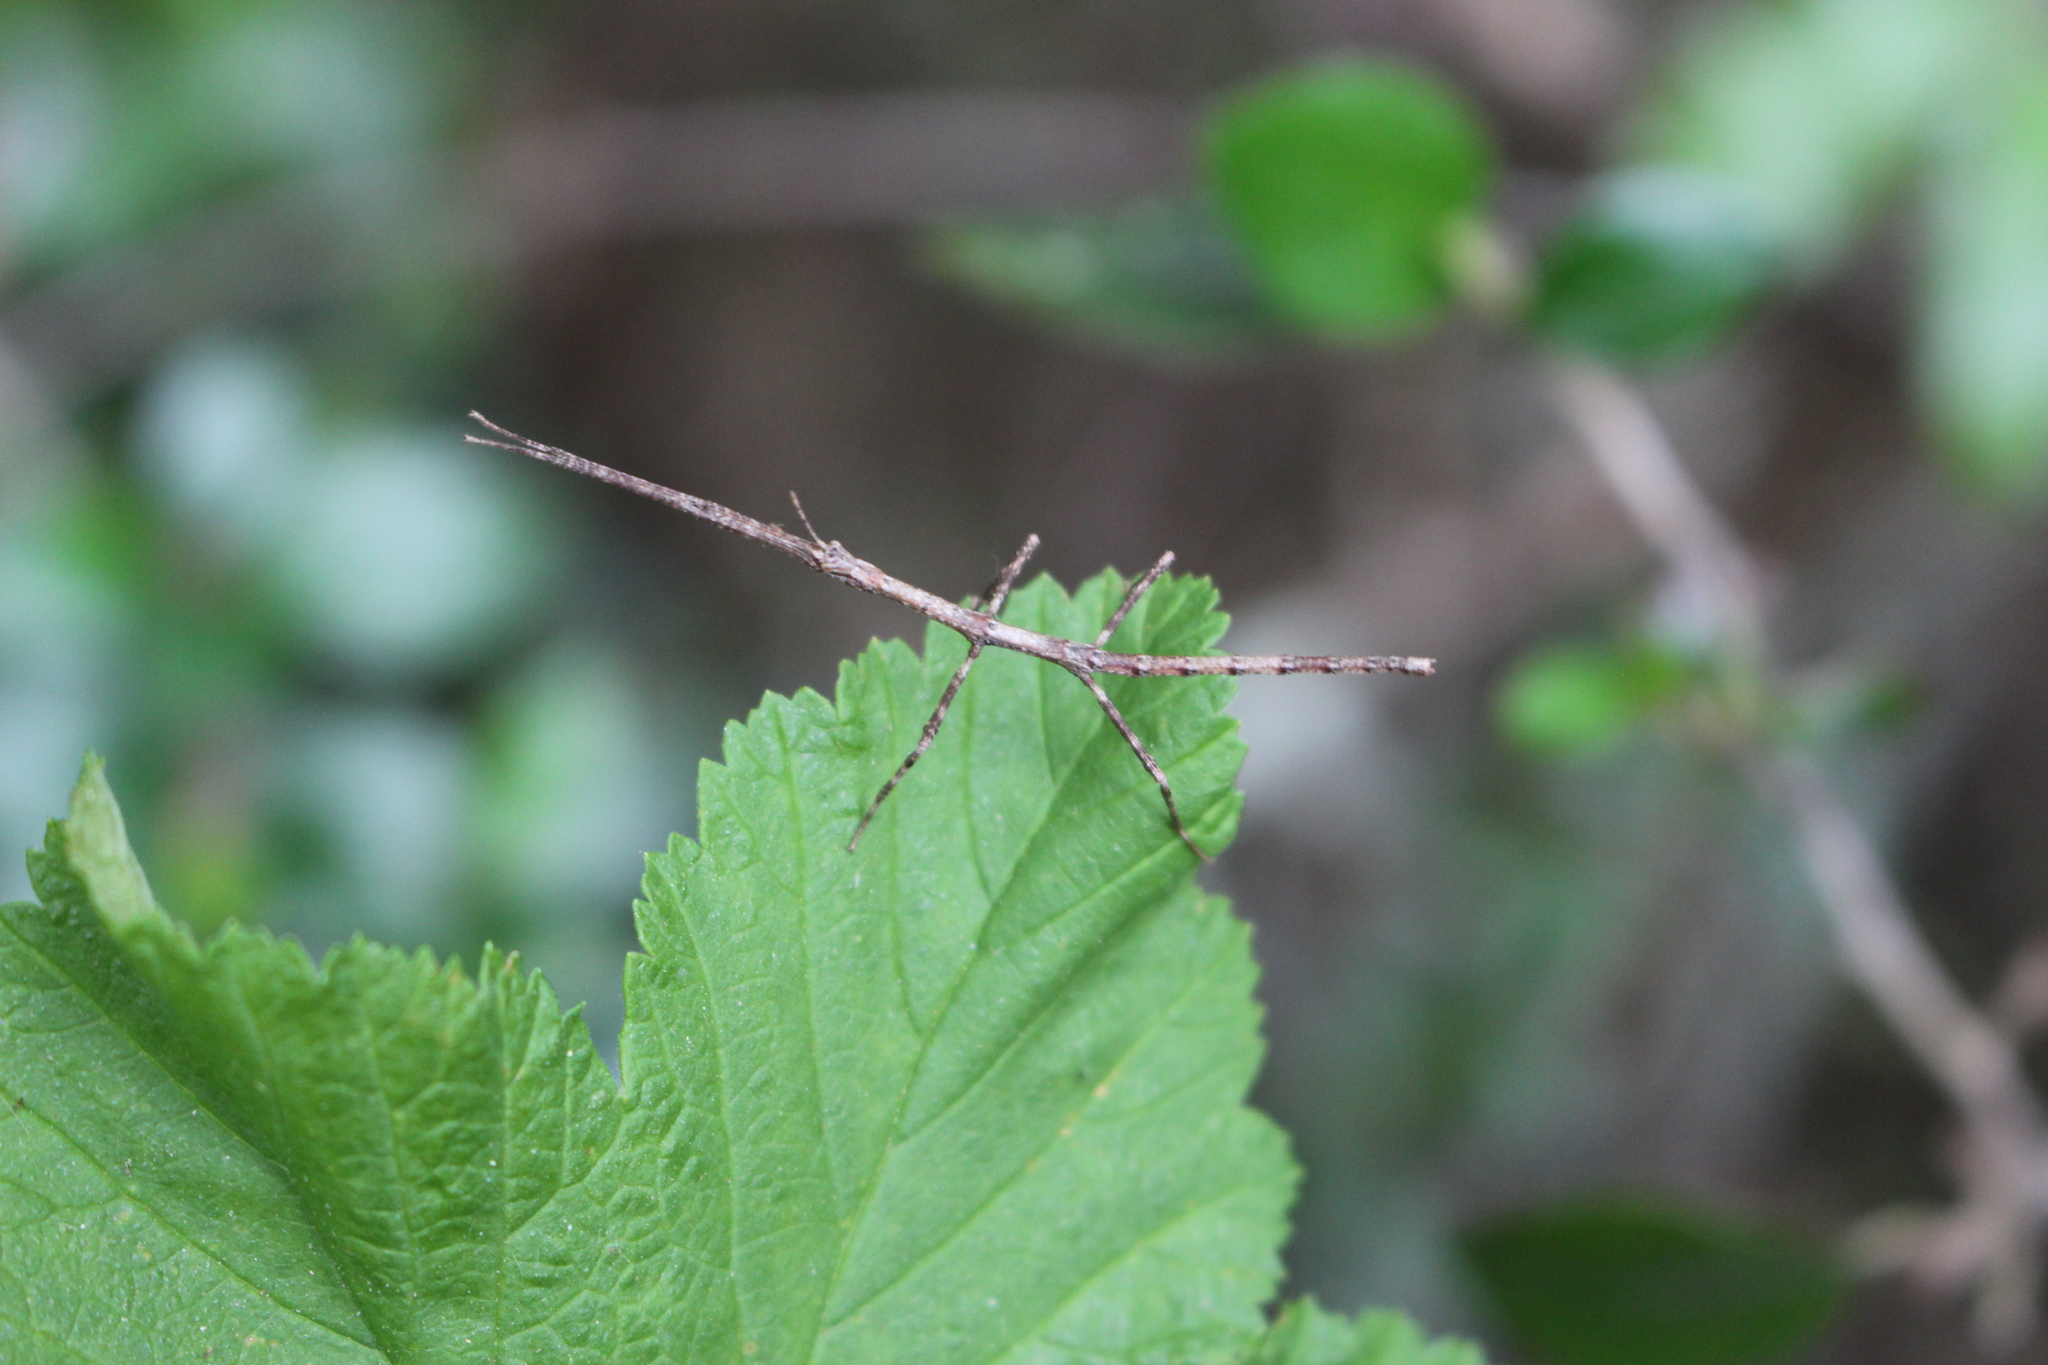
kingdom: Animalia
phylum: Arthropoda
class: Insecta
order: Phasmida
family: Phasmatidae
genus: Argosarchus
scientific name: Argosarchus horridus
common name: Bristly stick insect
